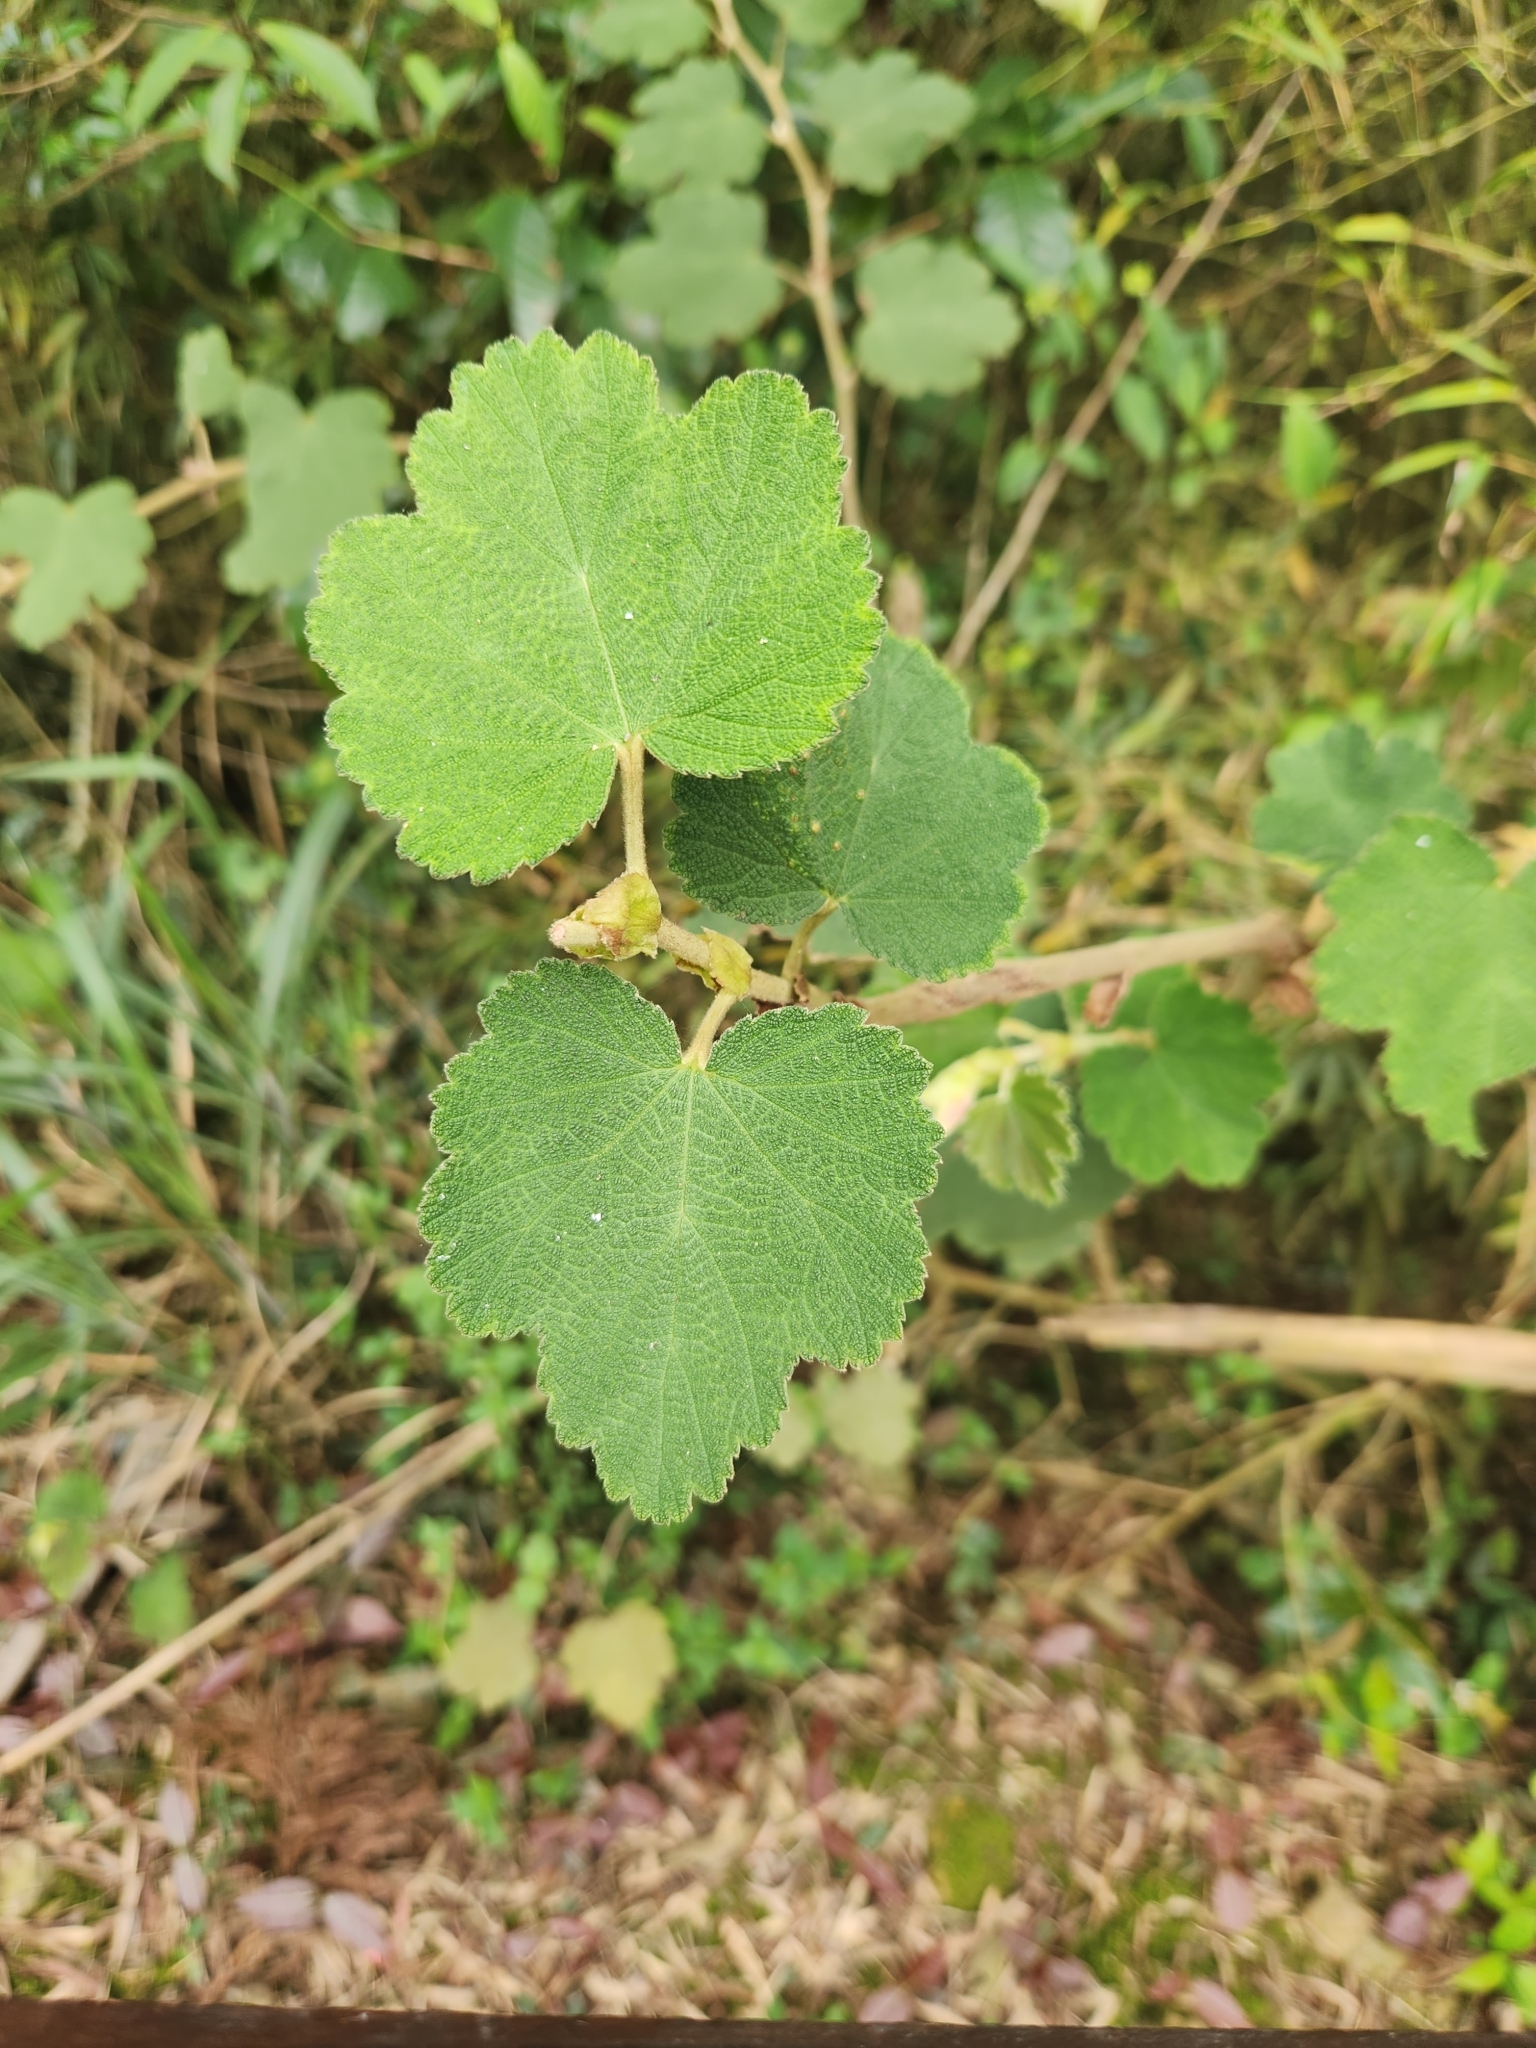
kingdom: Plantae
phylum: Tracheophyta
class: Magnoliopsida
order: Rosales
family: Rosaceae
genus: Rubus
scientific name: Rubus formosensis
